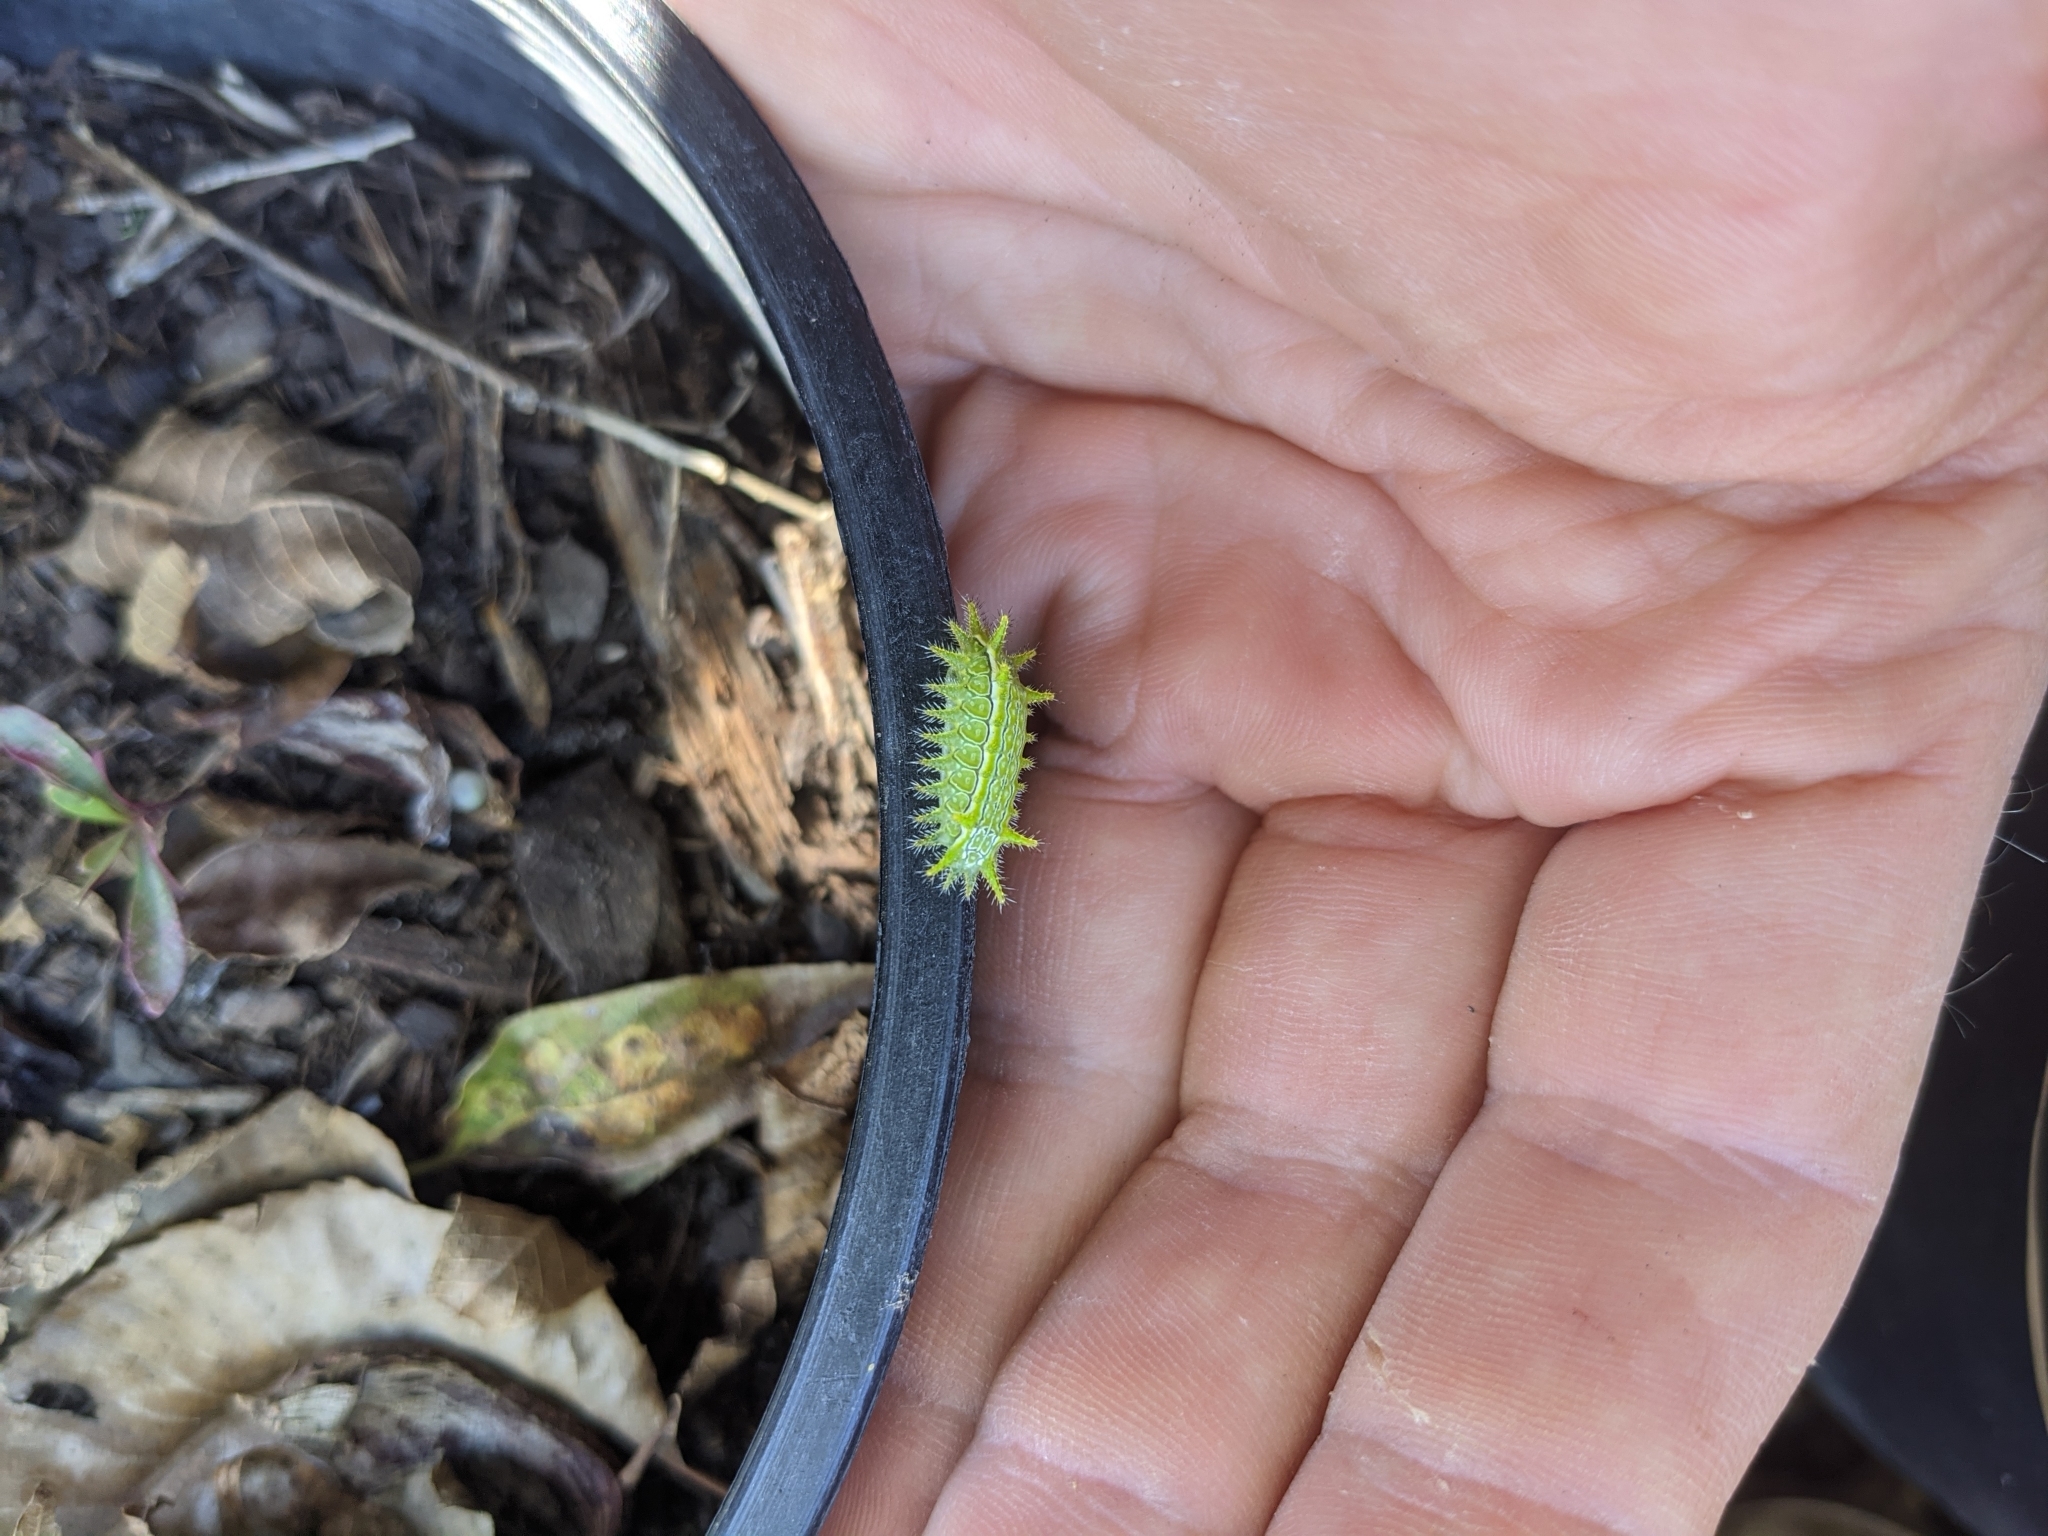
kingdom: Animalia
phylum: Arthropoda
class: Insecta
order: Lepidoptera
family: Limacodidae
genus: Euclea
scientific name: Euclea incisa
